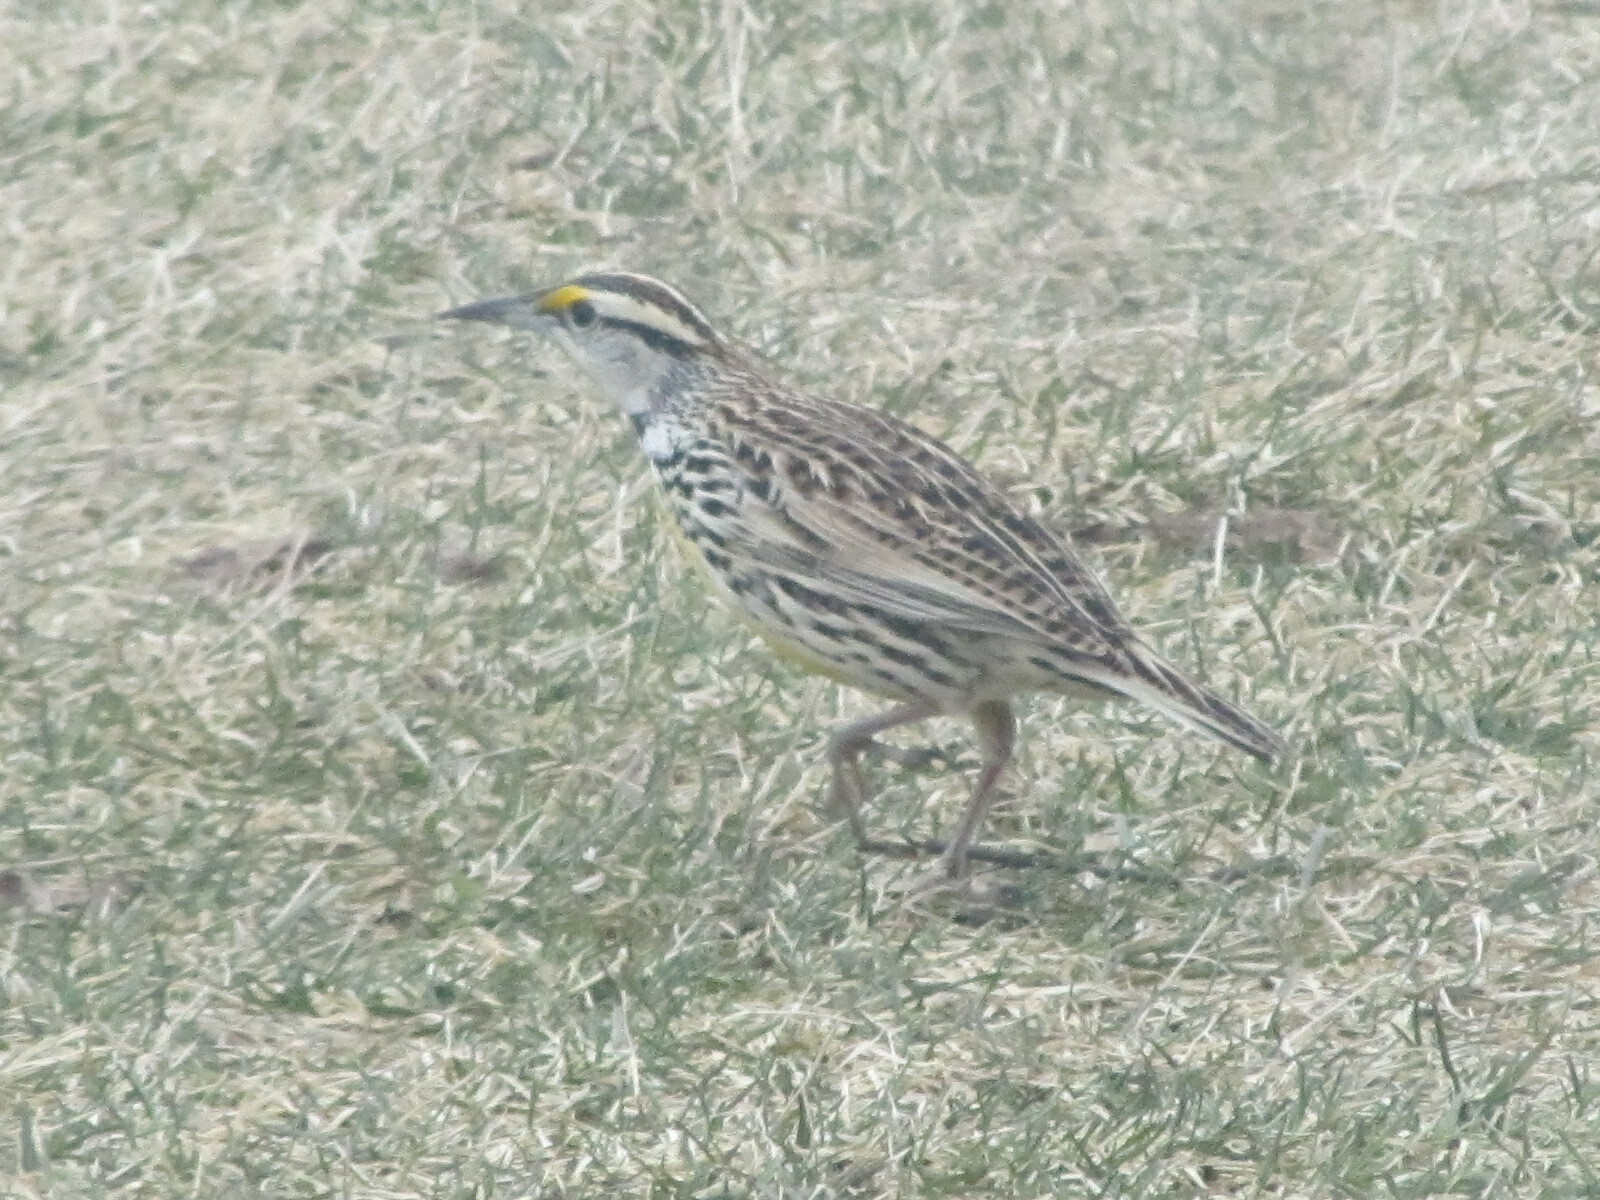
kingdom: Animalia
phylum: Chordata
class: Aves
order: Passeriformes
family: Icteridae
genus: Sturnella
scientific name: Sturnella magna
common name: Eastern meadowlark
